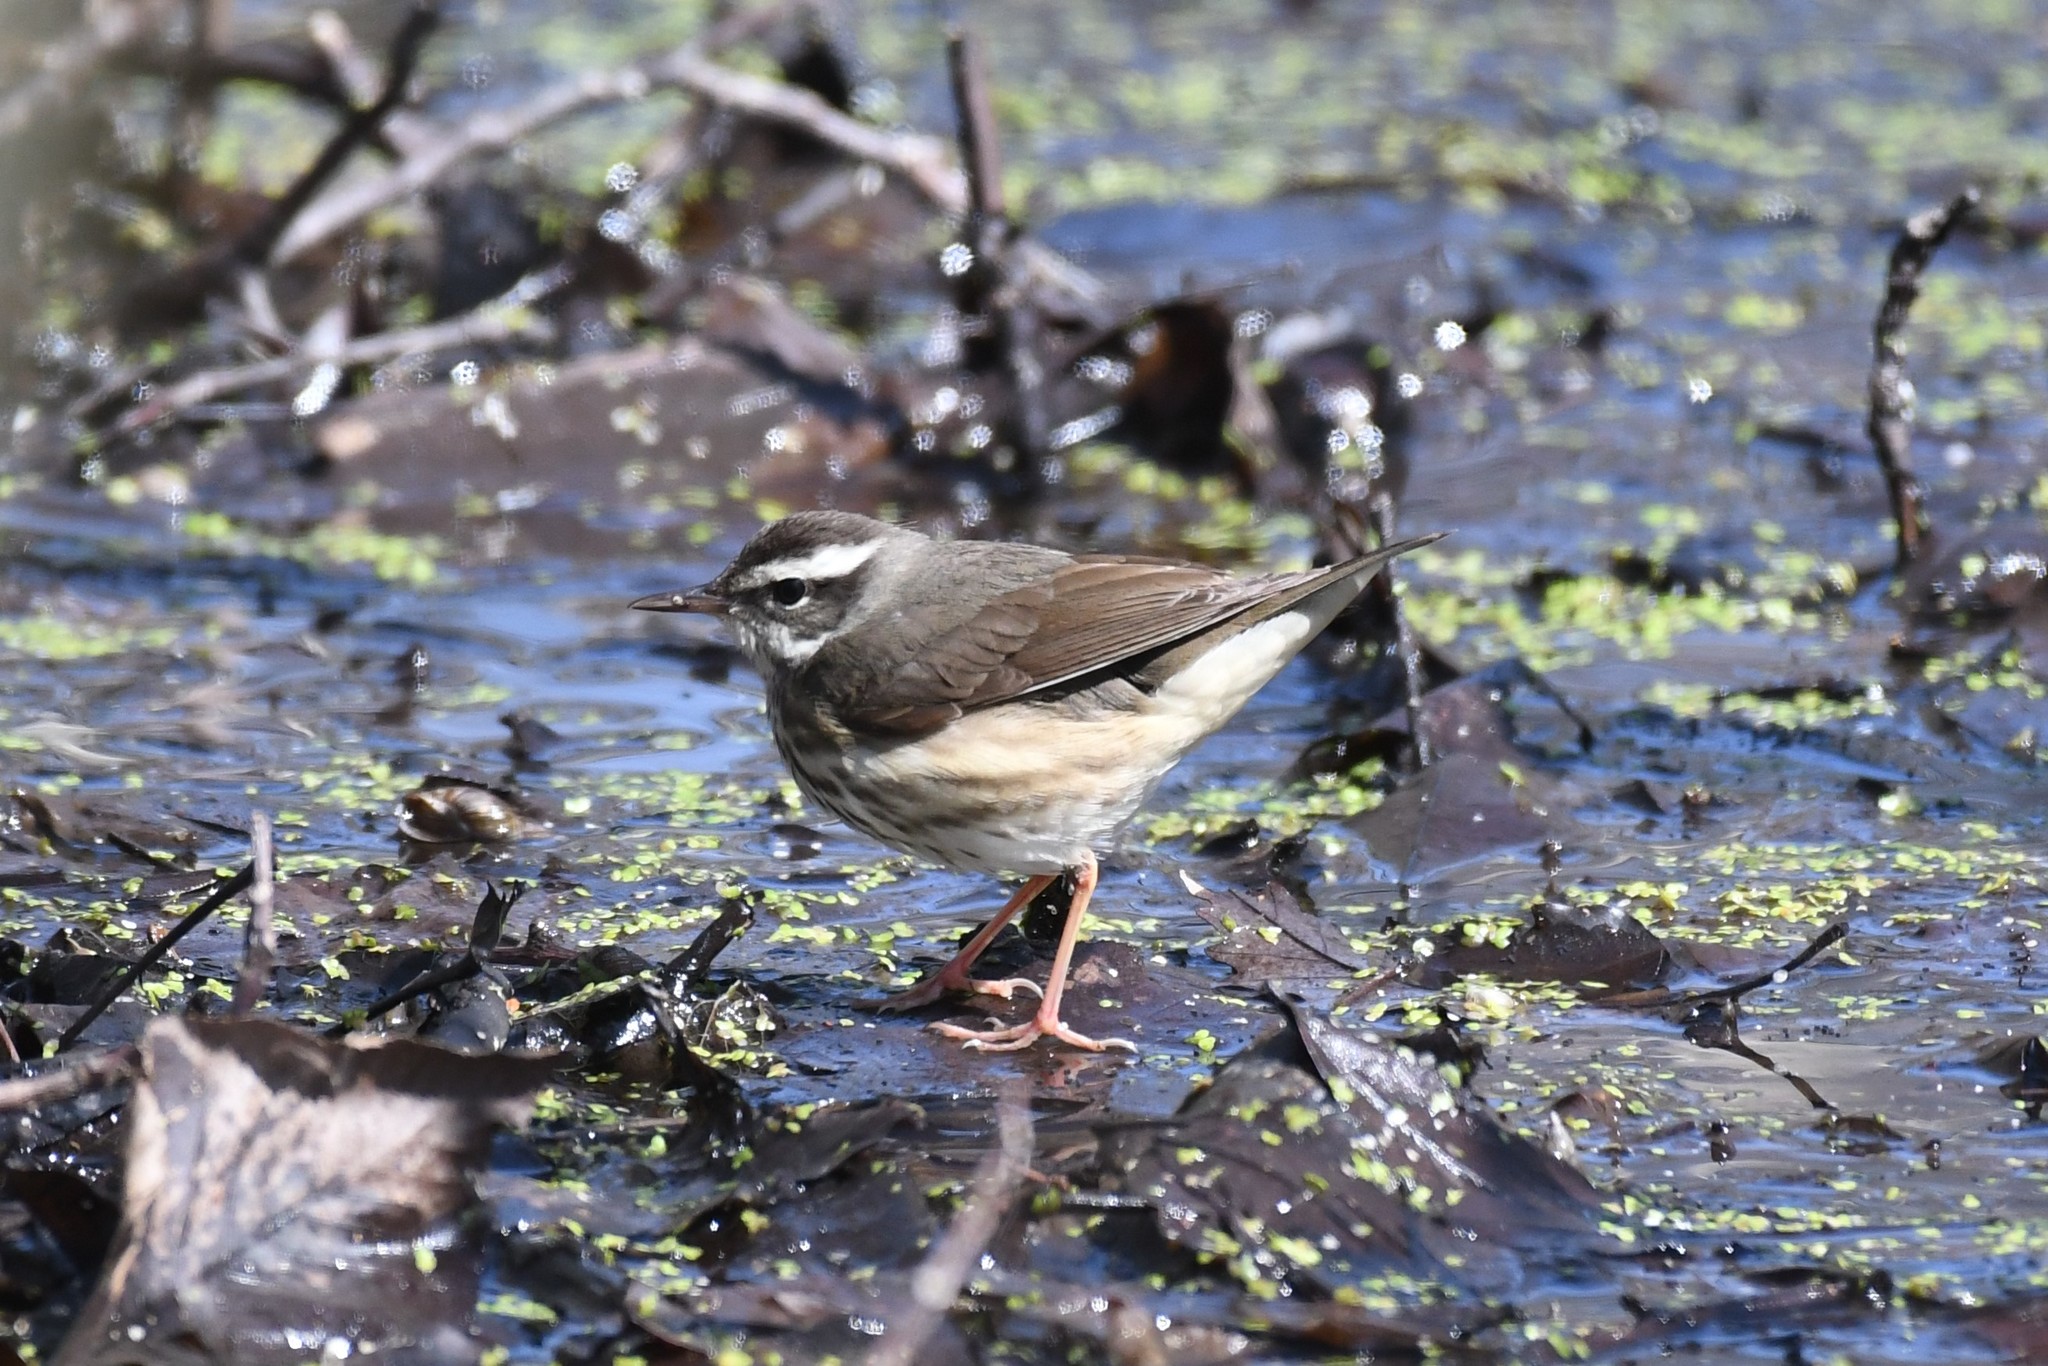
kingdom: Animalia
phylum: Chordata
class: Aves
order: Passeriformes
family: Parulidae
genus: Parkesia
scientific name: Parkesia motacilla
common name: Louisiana waterthrush
